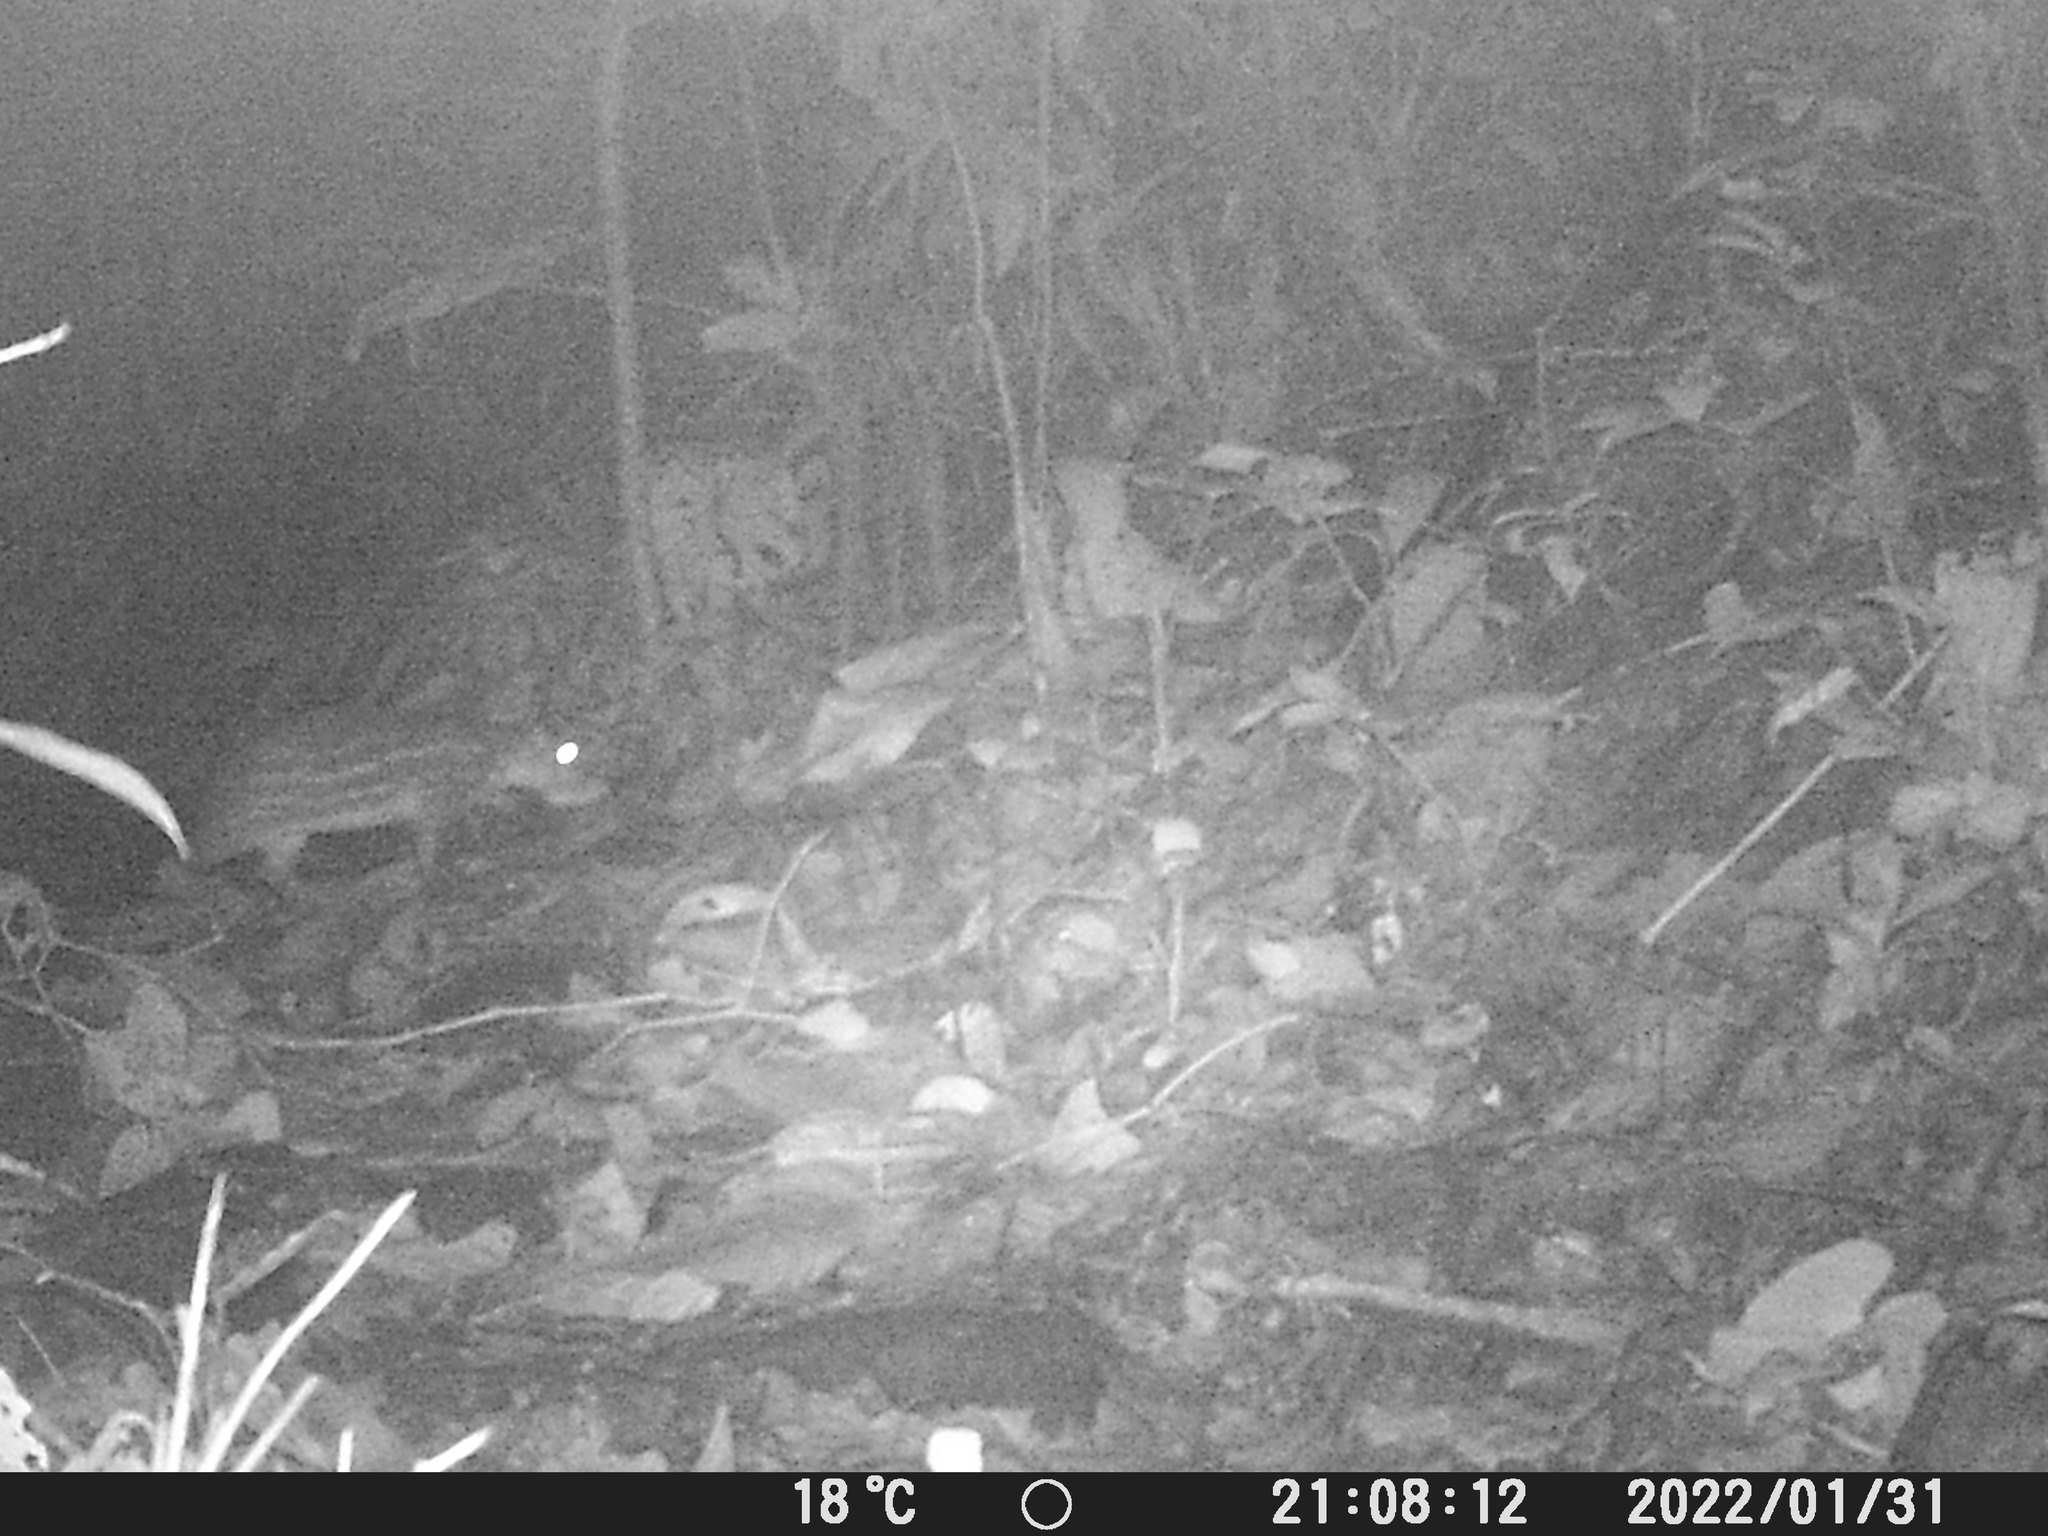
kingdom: Animalia
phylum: Chordata
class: Mammalia
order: Rodentia
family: Cuniculidae
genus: Cuniculus
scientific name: Cuniculus paca
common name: Lowland paca
